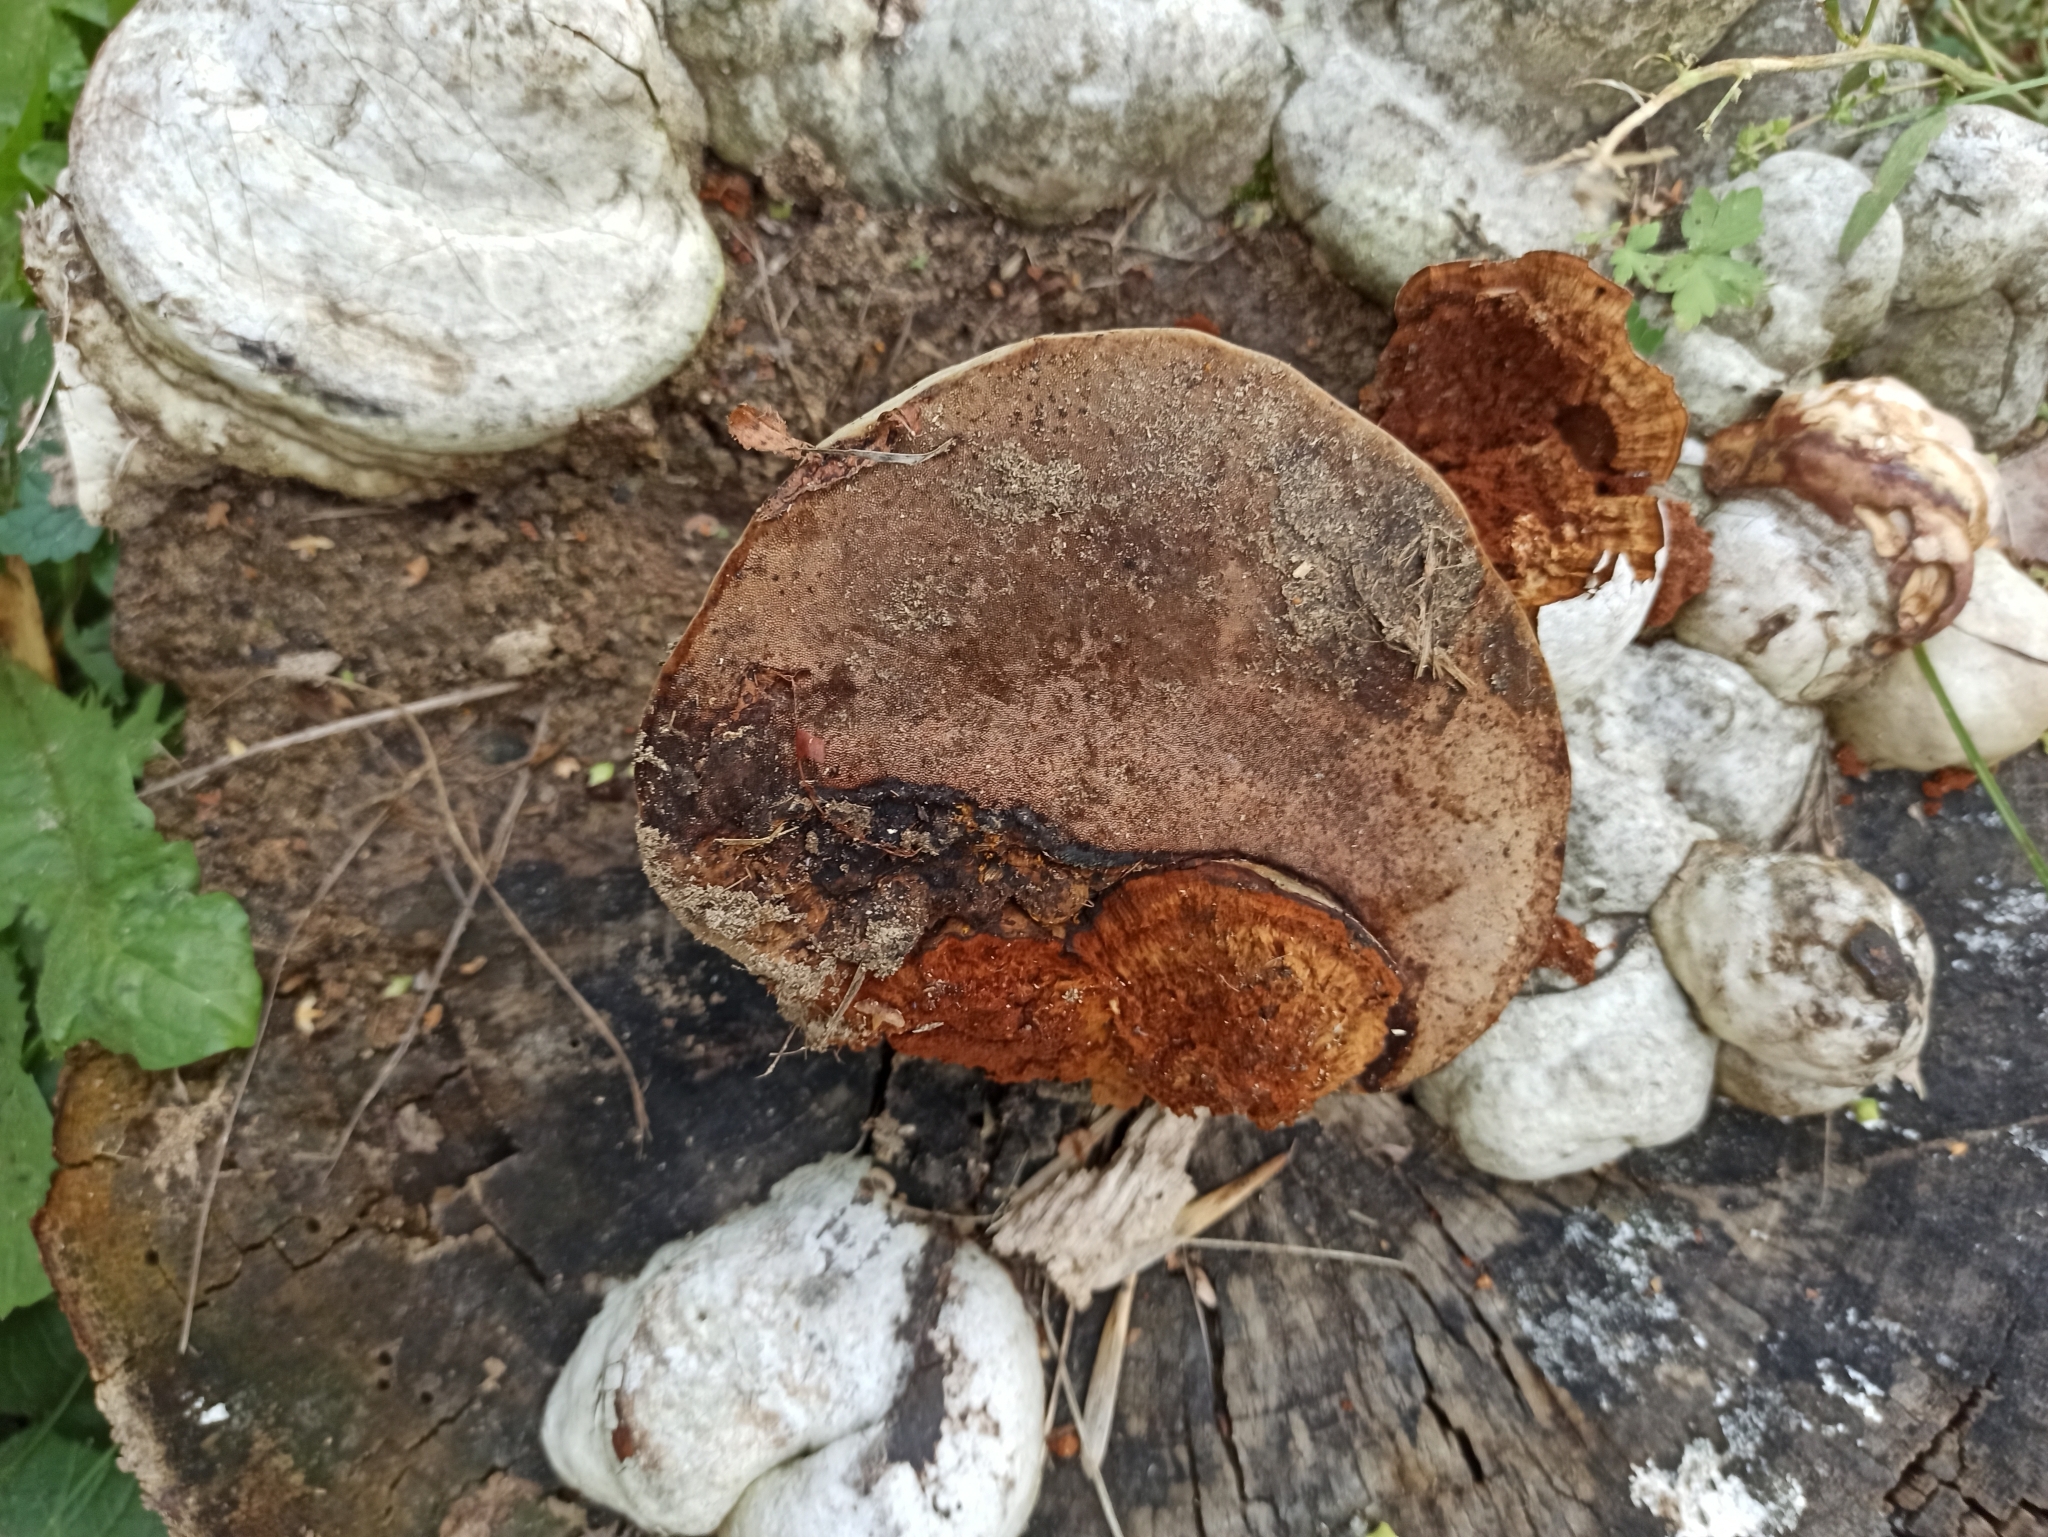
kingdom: Fungi
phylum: Basidiomycota
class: Agaricomycetes
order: Polyporales
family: Polyporaceae
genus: Fomes
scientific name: Fomes fomentarius
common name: Hoof fungus
